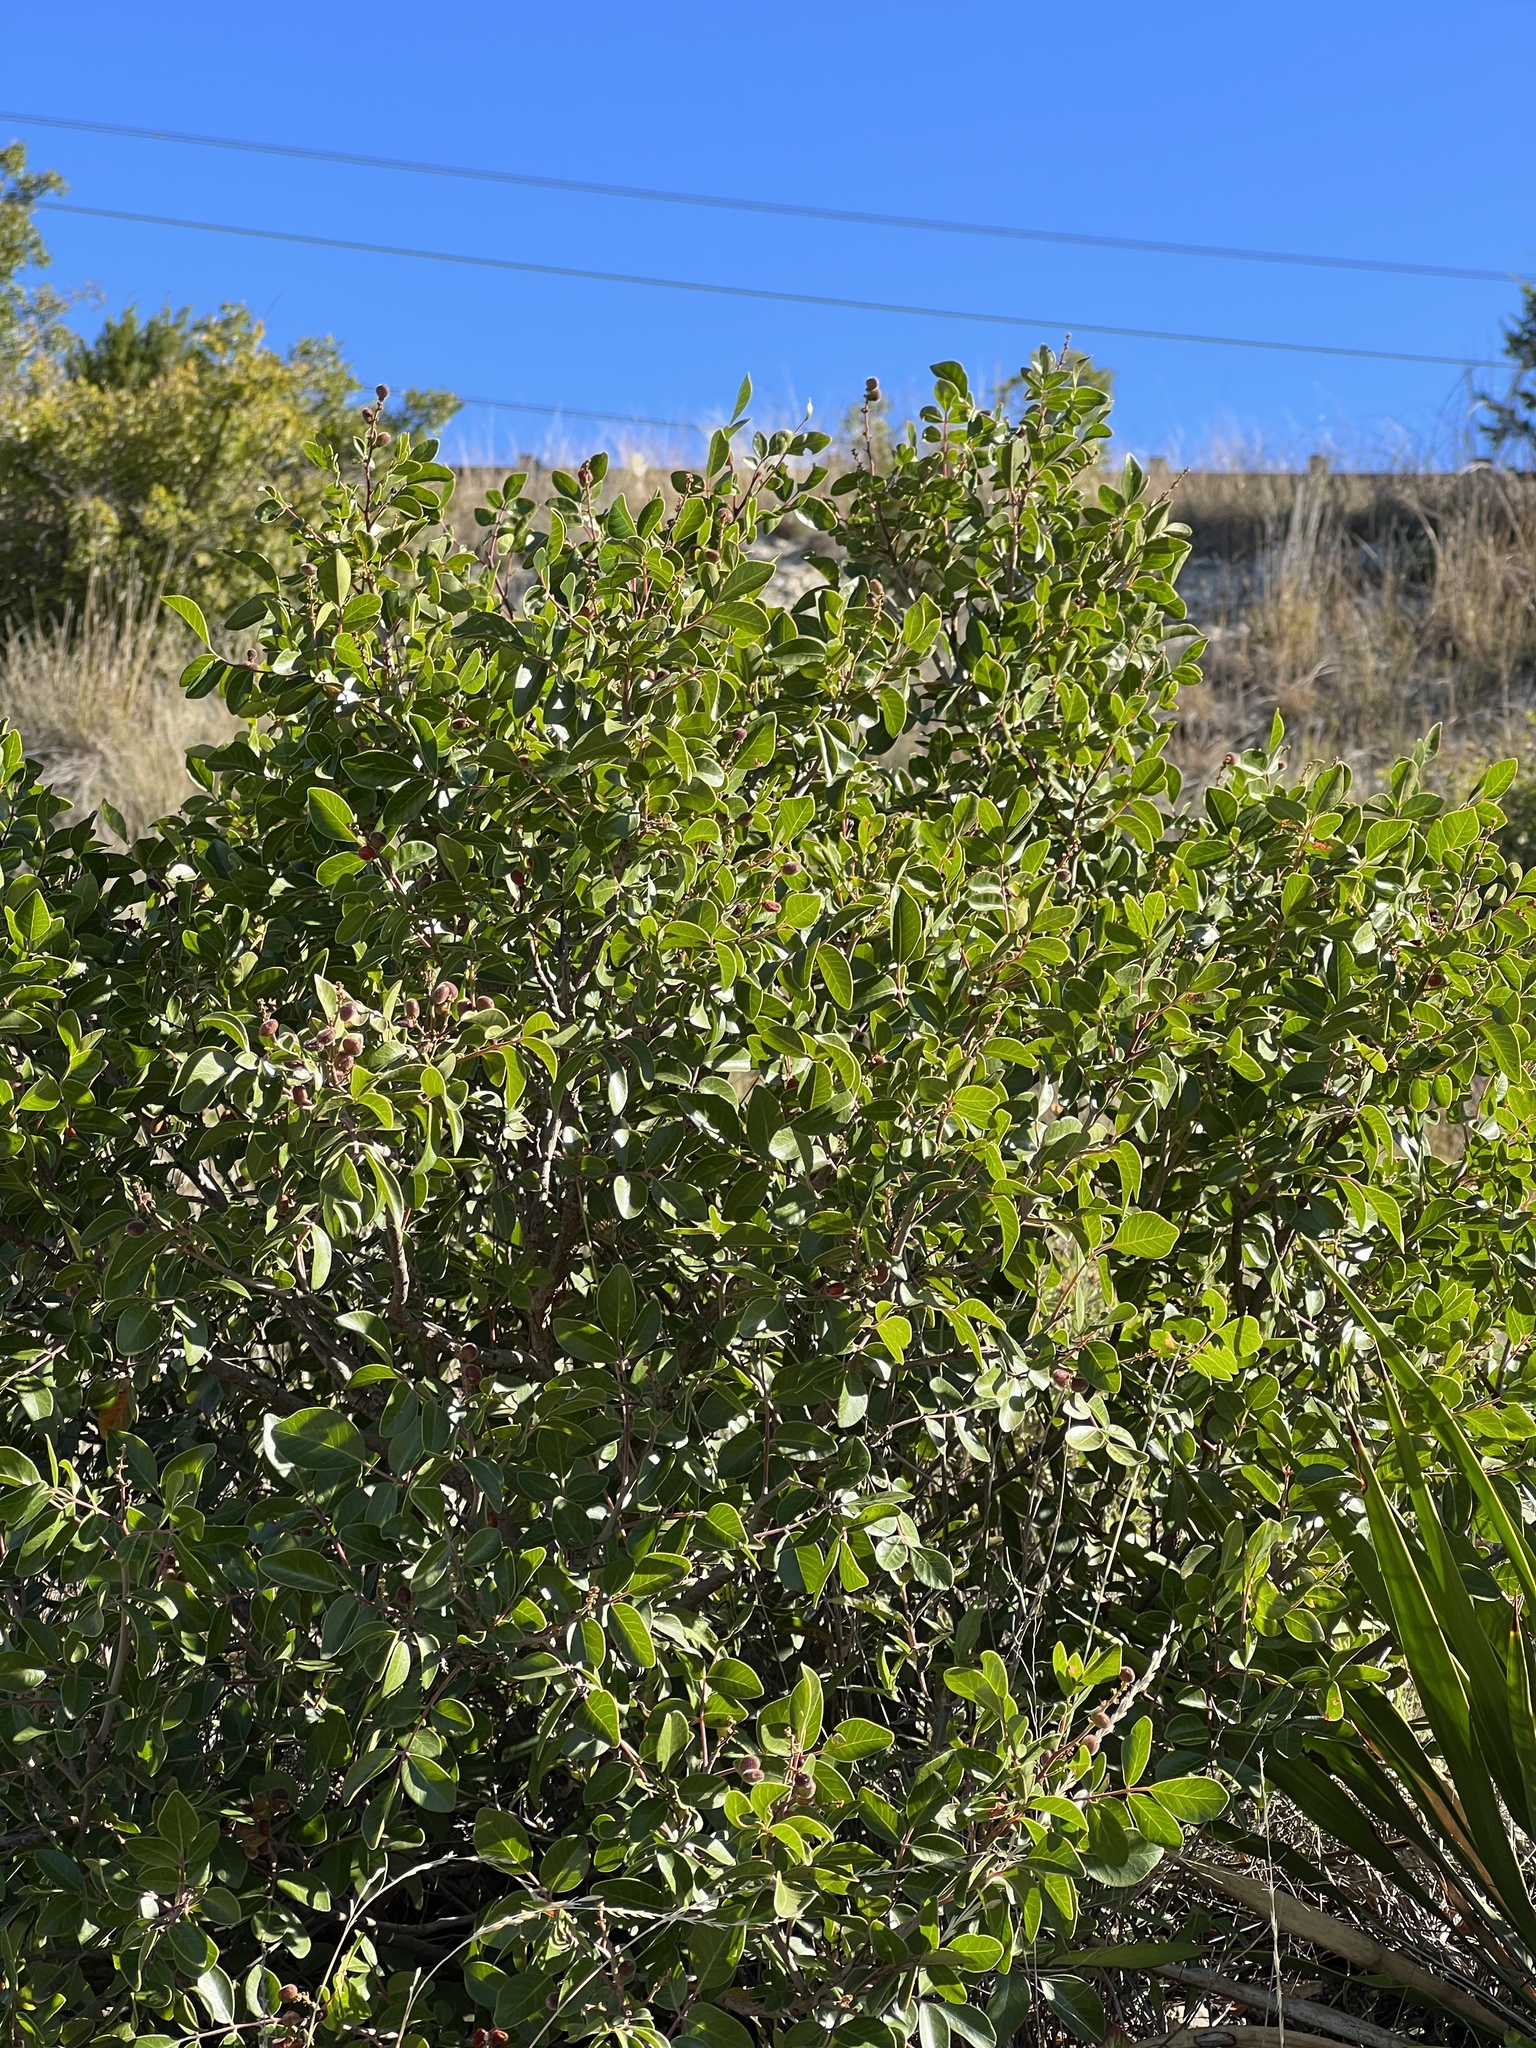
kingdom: Plantae
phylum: Tracheophyta
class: Magnoliopsida
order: Sapindales
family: Anacardiaceae
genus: Rhus
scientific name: Rhus virens
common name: Evergreen sumac
